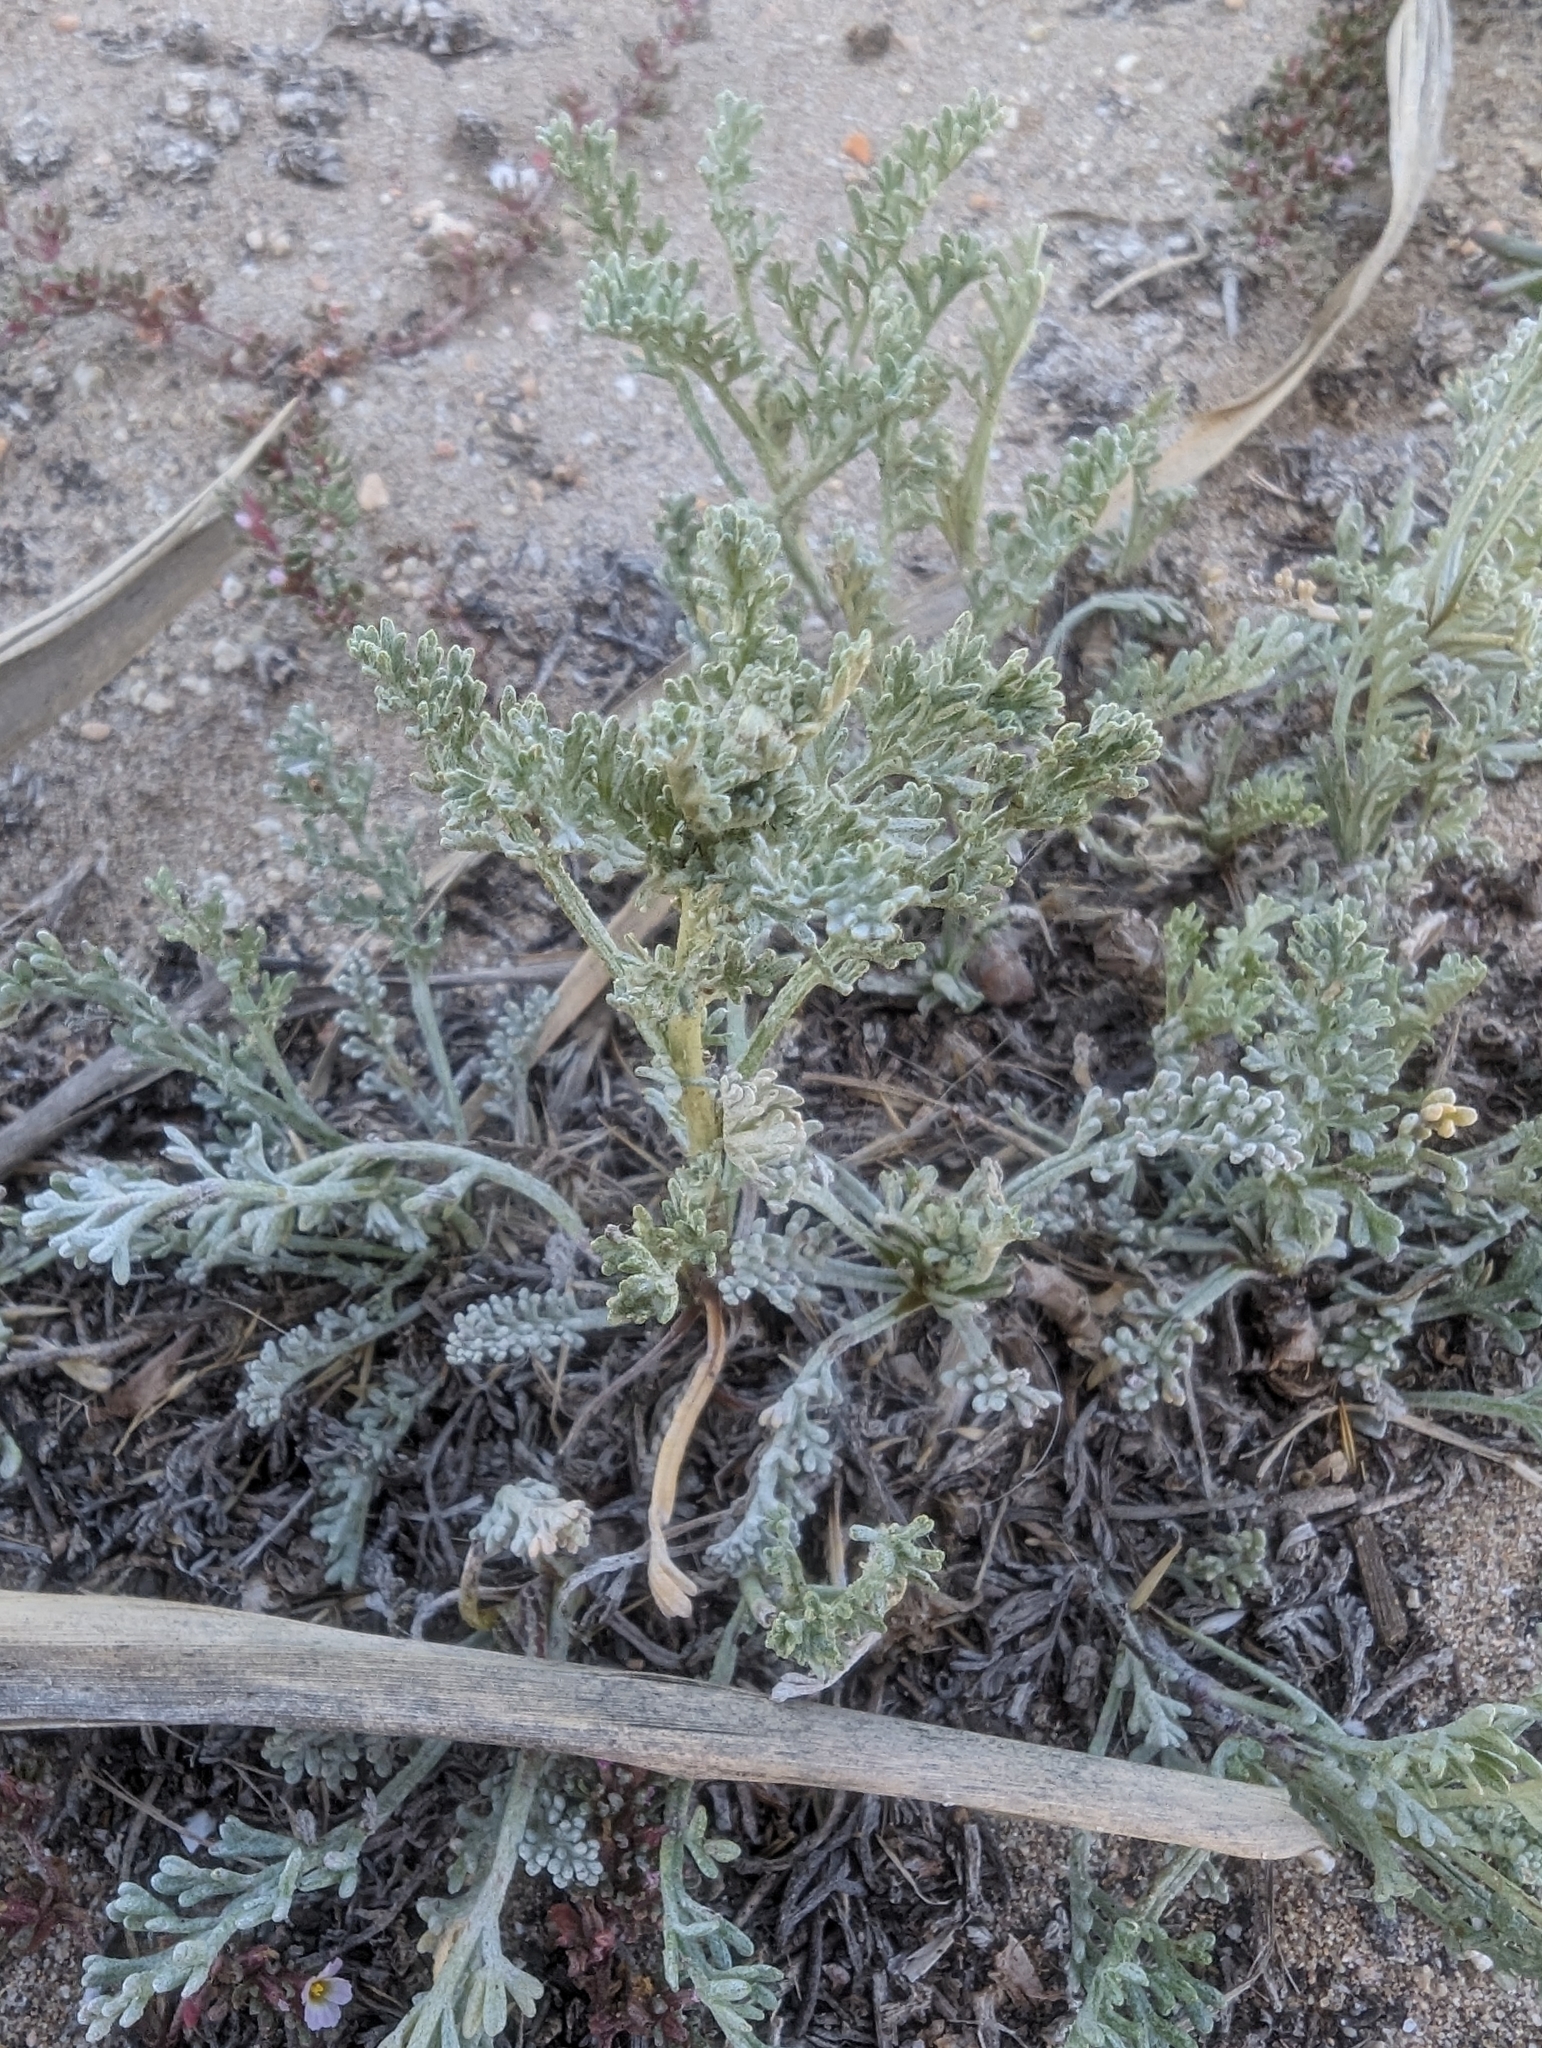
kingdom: Plantae
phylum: Tracheophyta
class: Magnoliopsida
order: Asterales
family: Asteraceae
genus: Artemisia
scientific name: Artemisia caerulescens
